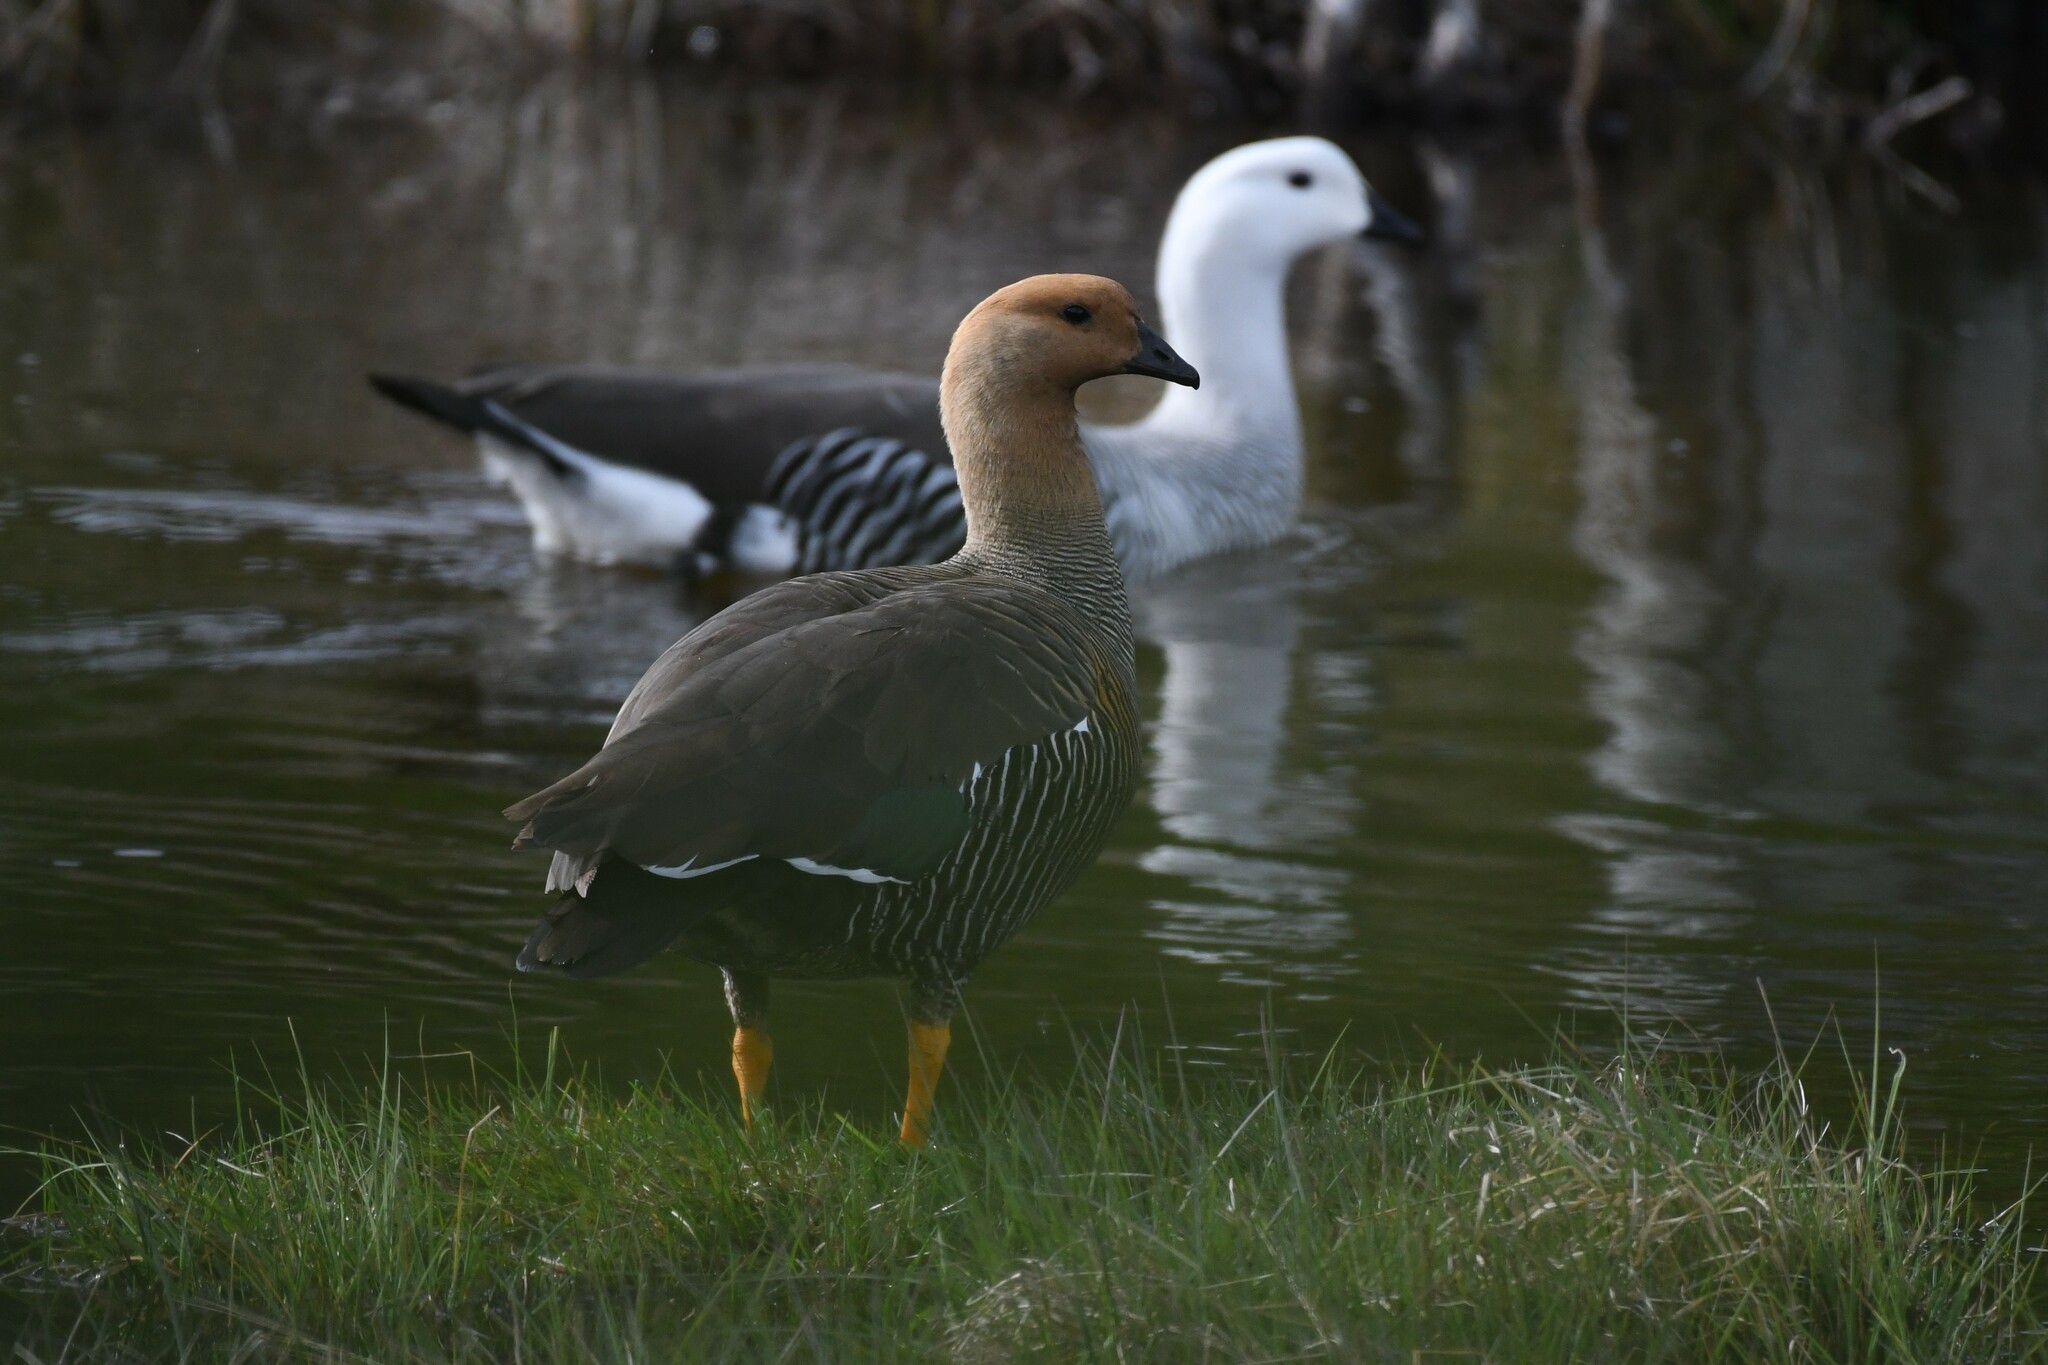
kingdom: Animalia
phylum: Chordata
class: Aves
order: Anseriformes
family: Anatidae
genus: Chloephaga
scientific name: Chloephaga picta
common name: Upland goose
